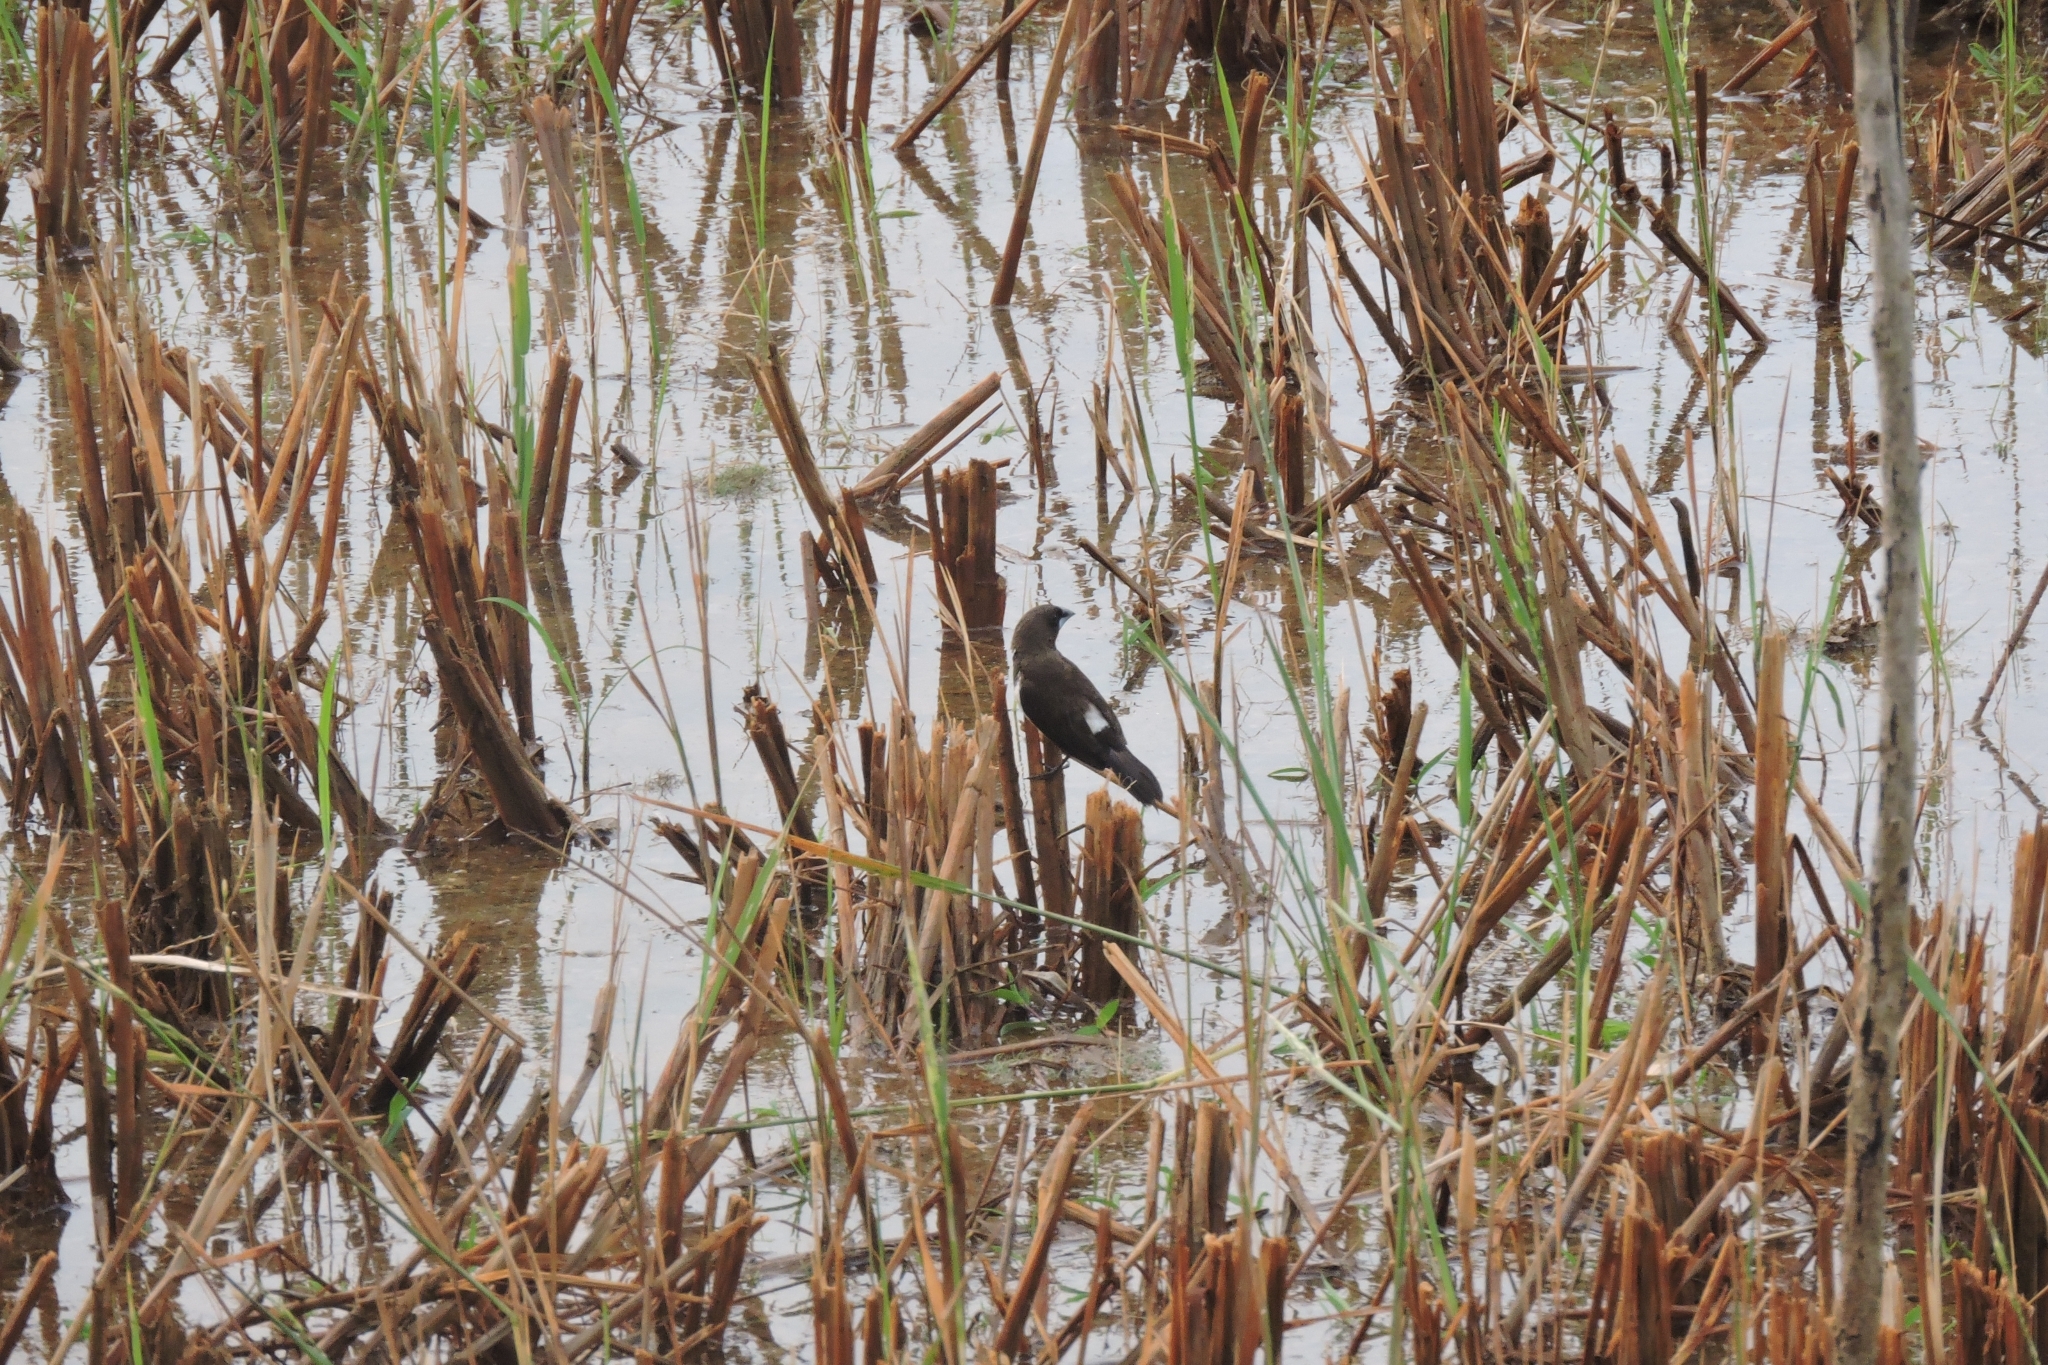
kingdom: Animalia
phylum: Chordata
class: Aves
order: Passeriformes
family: Estrildidae
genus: Lonchura
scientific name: Lonchura striata
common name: White-rumped munia
